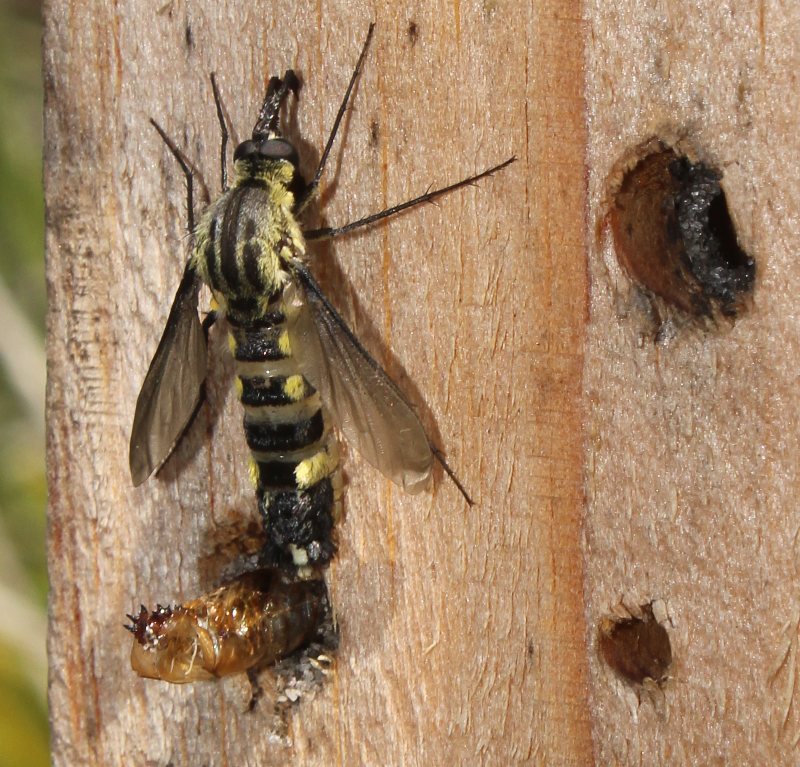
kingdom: Animalia
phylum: Arthropoda
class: Insecta
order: Diptera
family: Bombyliidae
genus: Lepidophora
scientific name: Lepidophora lepidocera
